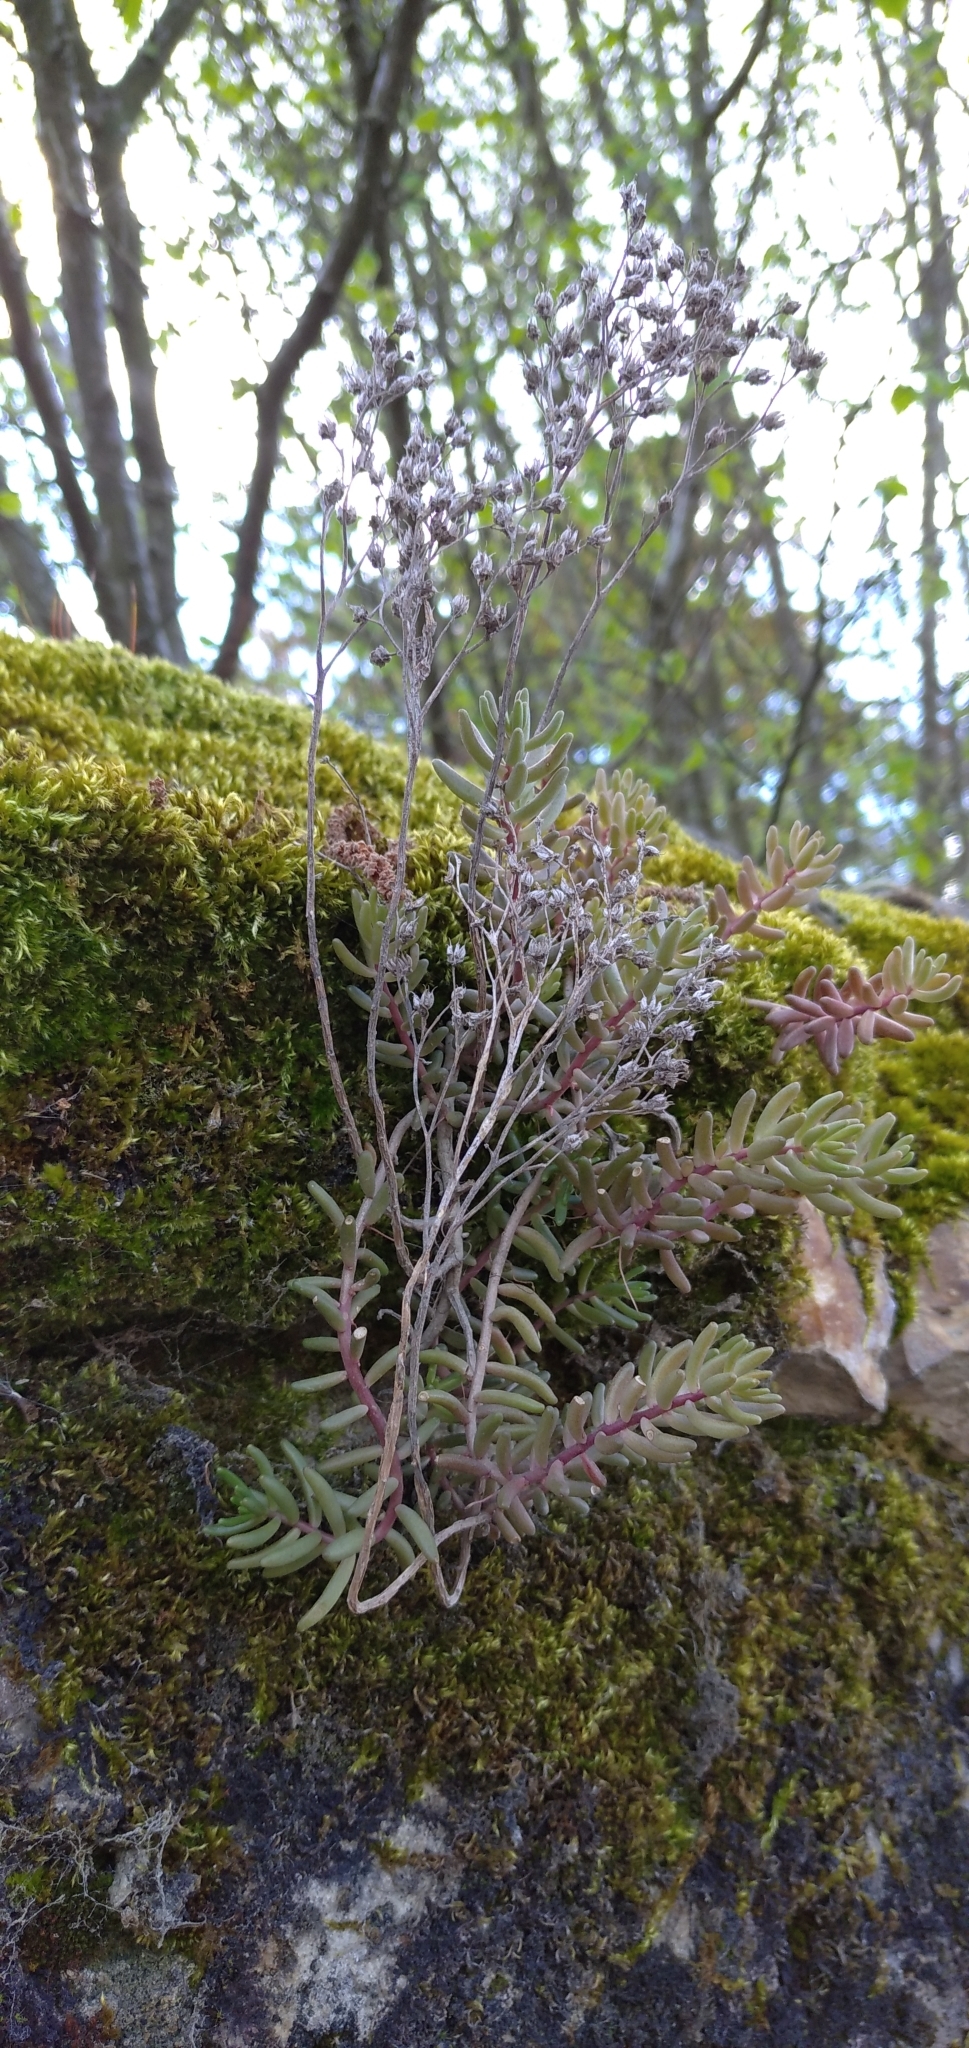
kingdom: Plantae
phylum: Tracheophyta
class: Magnoliopsida
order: Saxifragales
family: Crassulaceae
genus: Sedum
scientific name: Sedum album
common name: White stonecrop
